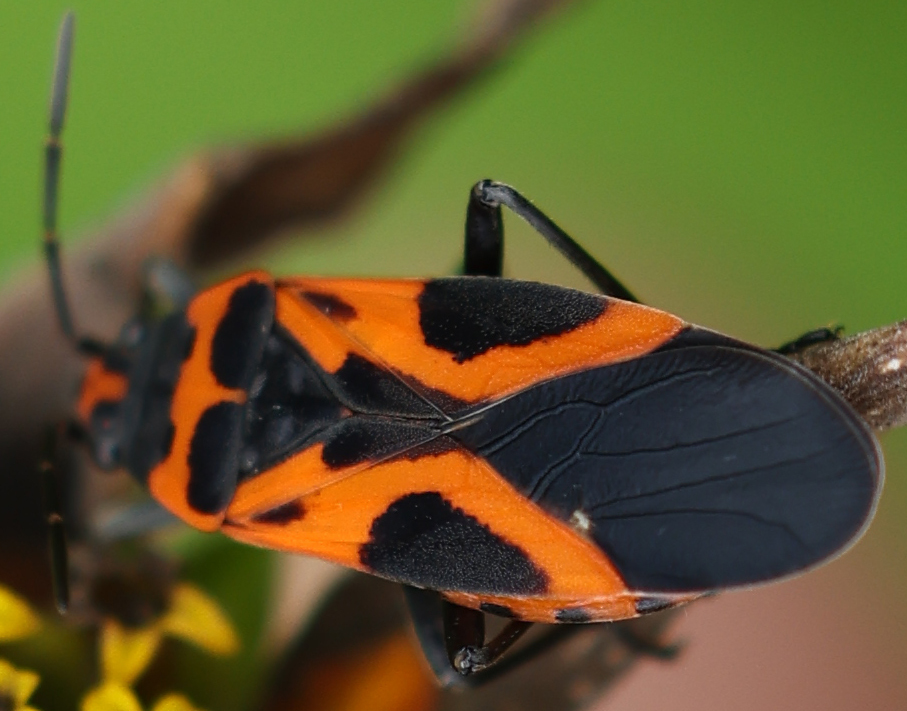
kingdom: Animalia
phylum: Arthropoda
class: Insecta
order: Hemiptera
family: Lygaeidae
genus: Lygaeus
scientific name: Lygaeus turcicus
